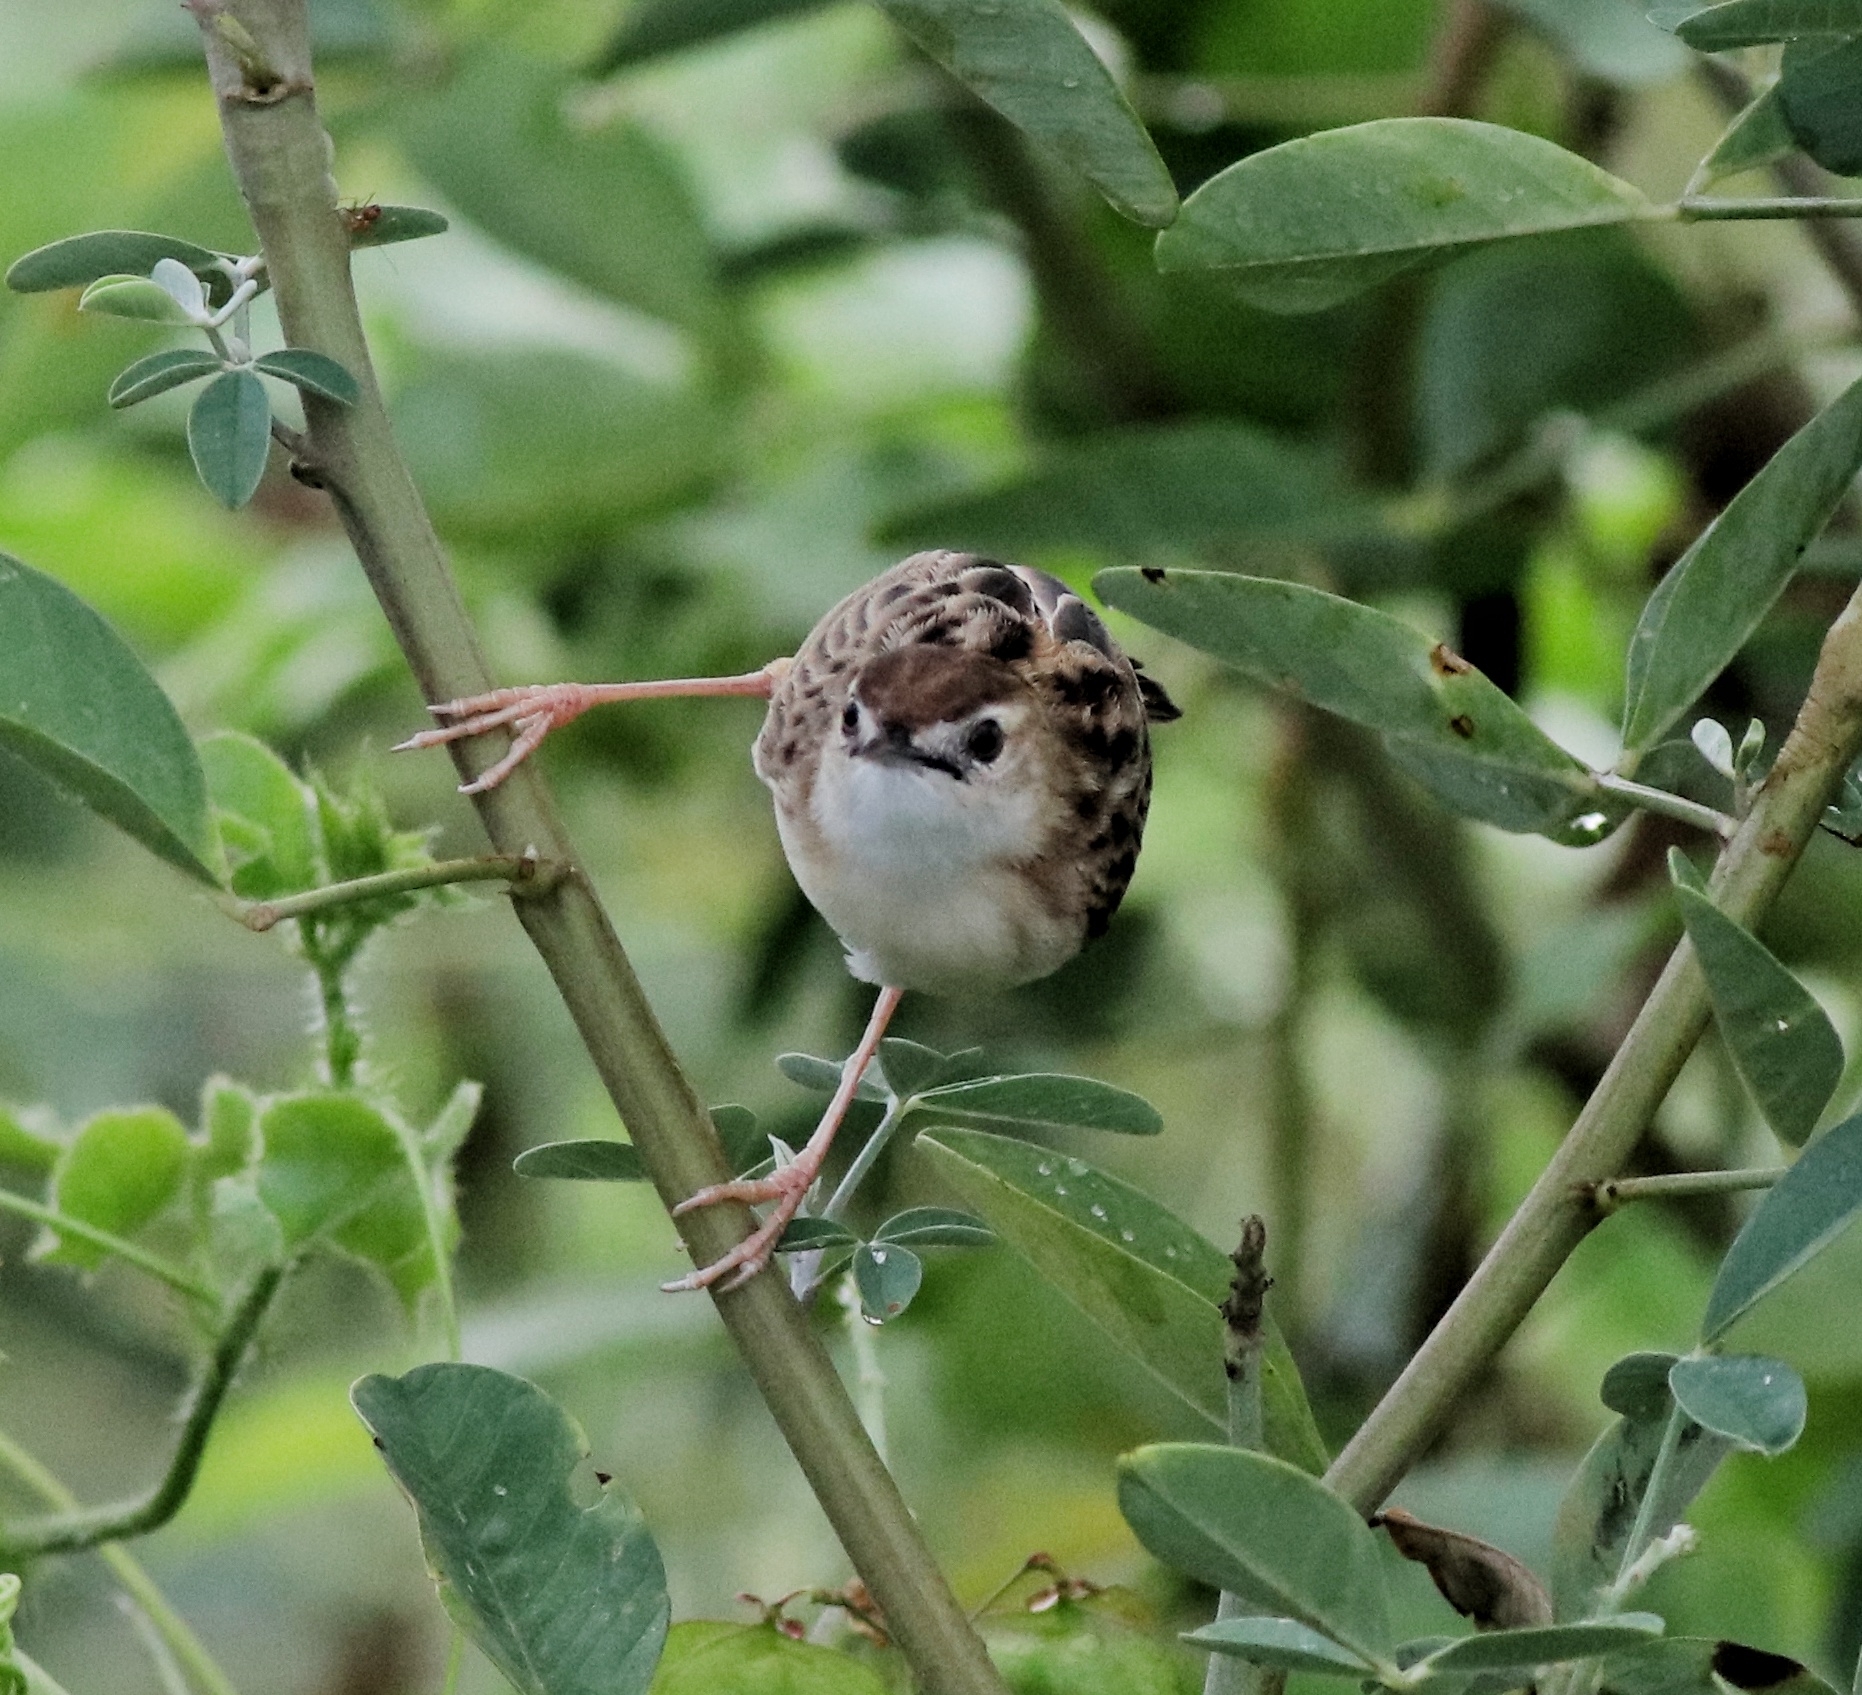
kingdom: Animalia
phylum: Chordata
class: Aves
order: Passeriformes
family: Cisticolidae
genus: Cisticola
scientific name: Cisticola juncidis
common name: Zitting cisticola
